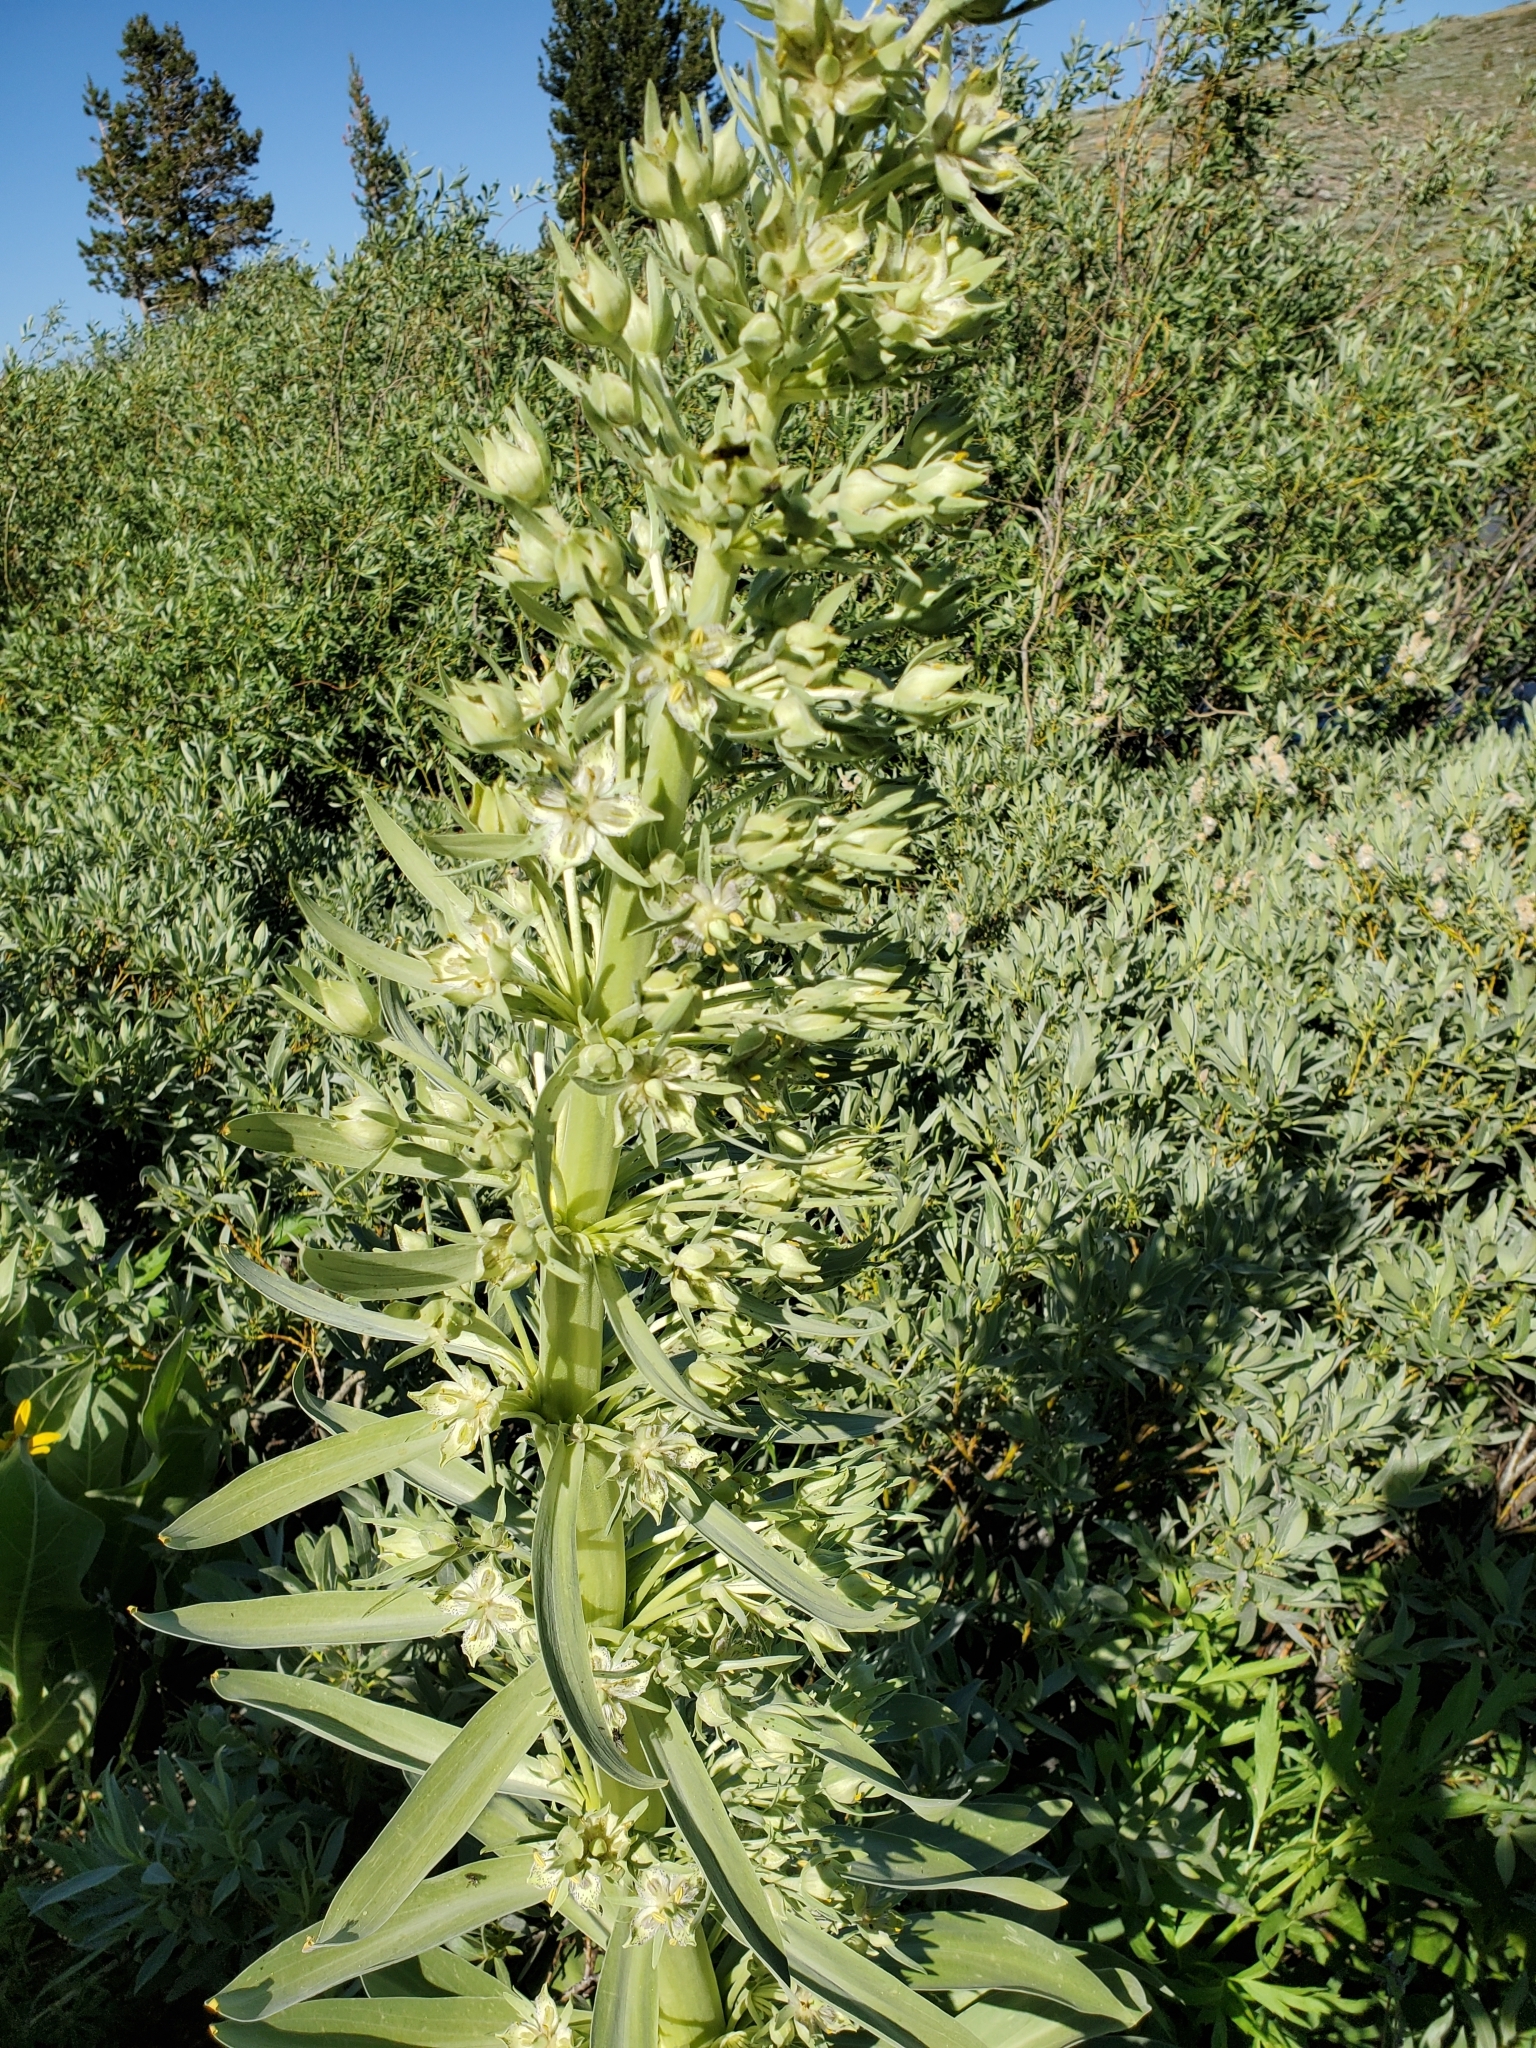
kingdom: Plantae
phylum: Tracheophyta
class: Magnoliopsida
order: Gentianales
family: Gentianaceae
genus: Frasera
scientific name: Frasera speciosa
